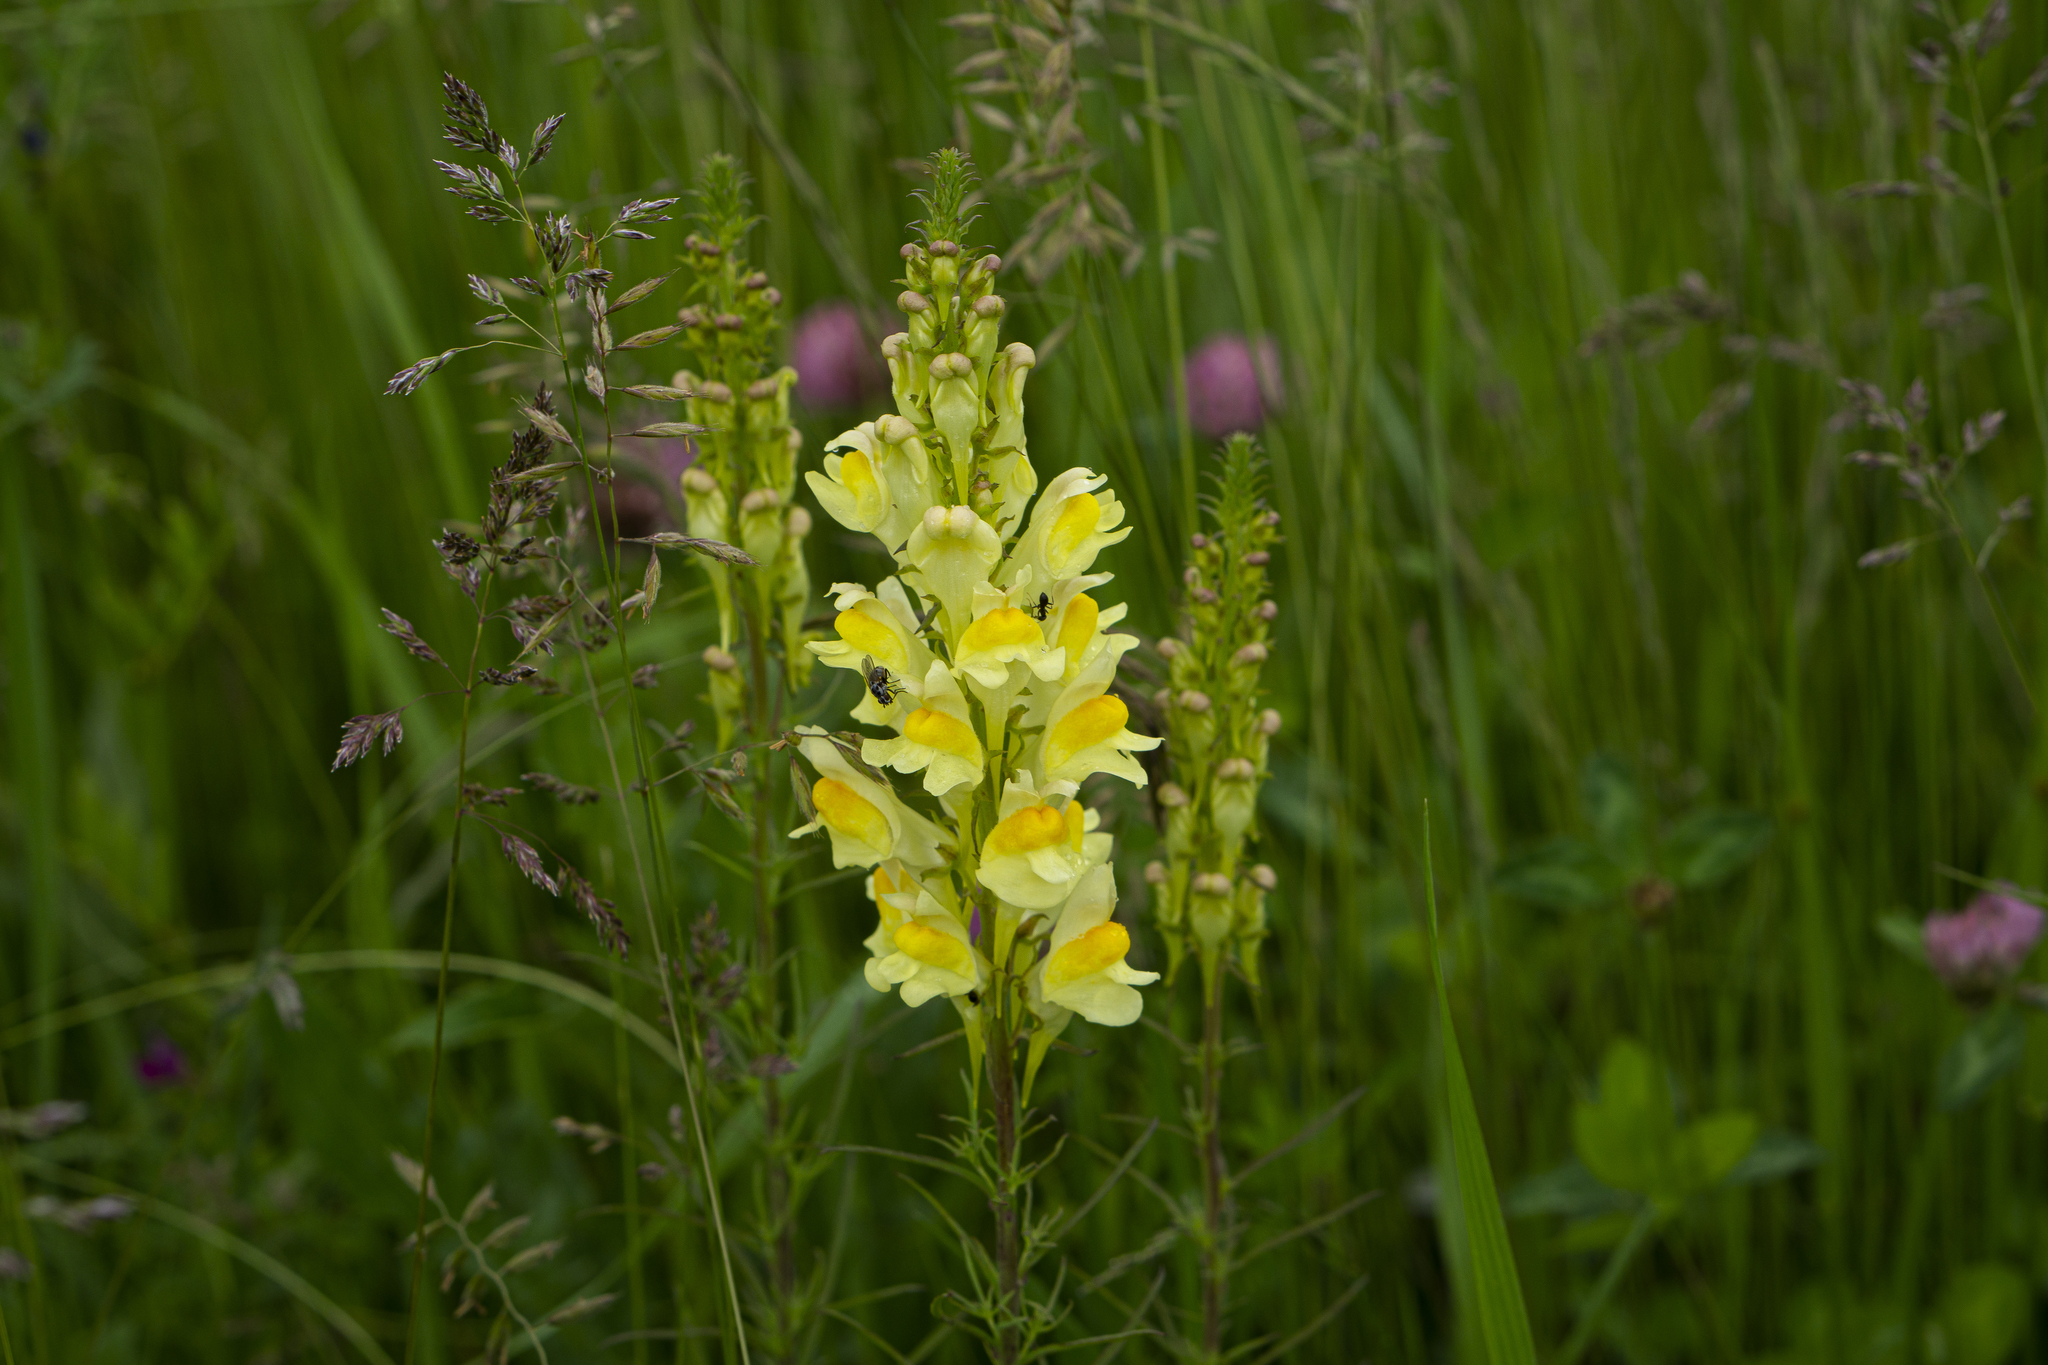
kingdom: Plantae
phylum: Tracheophyta
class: Magnoliopsida
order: Lamiales
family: Plantaginaceae
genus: Linaria
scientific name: Linaria vulgaris
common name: Butter and eggs
